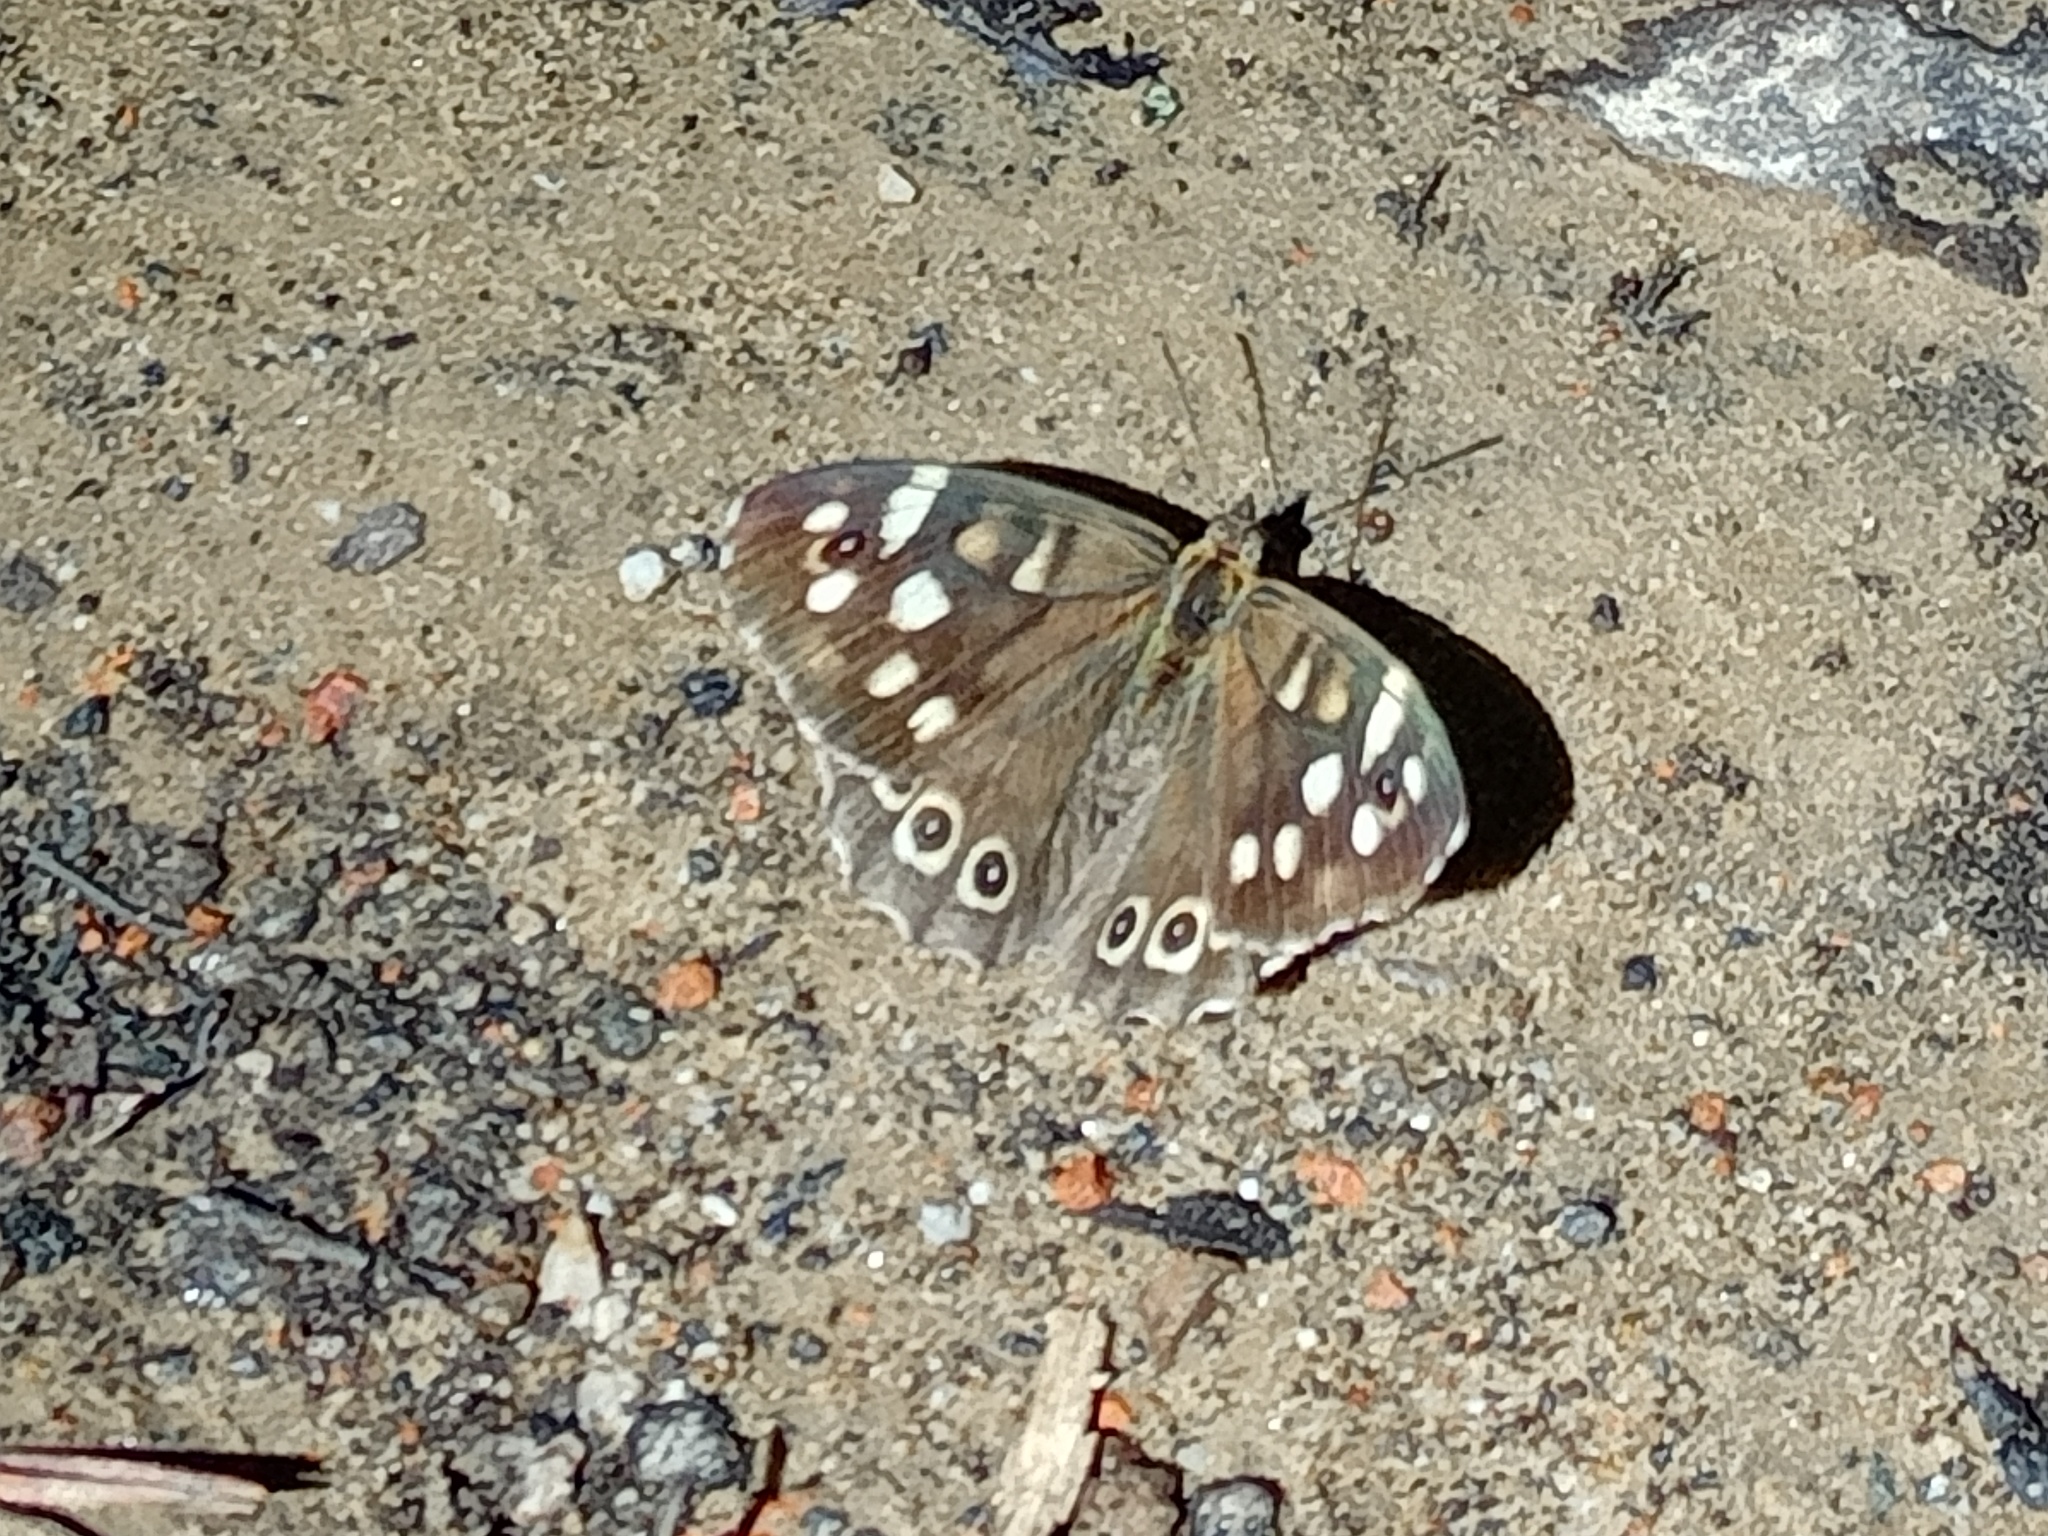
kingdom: Animalia
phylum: Arthropoda
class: Insecta
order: Lepidoptera
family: Nymphalidae
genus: Pararge
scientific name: Pararge aegeria
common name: Speckled wood
